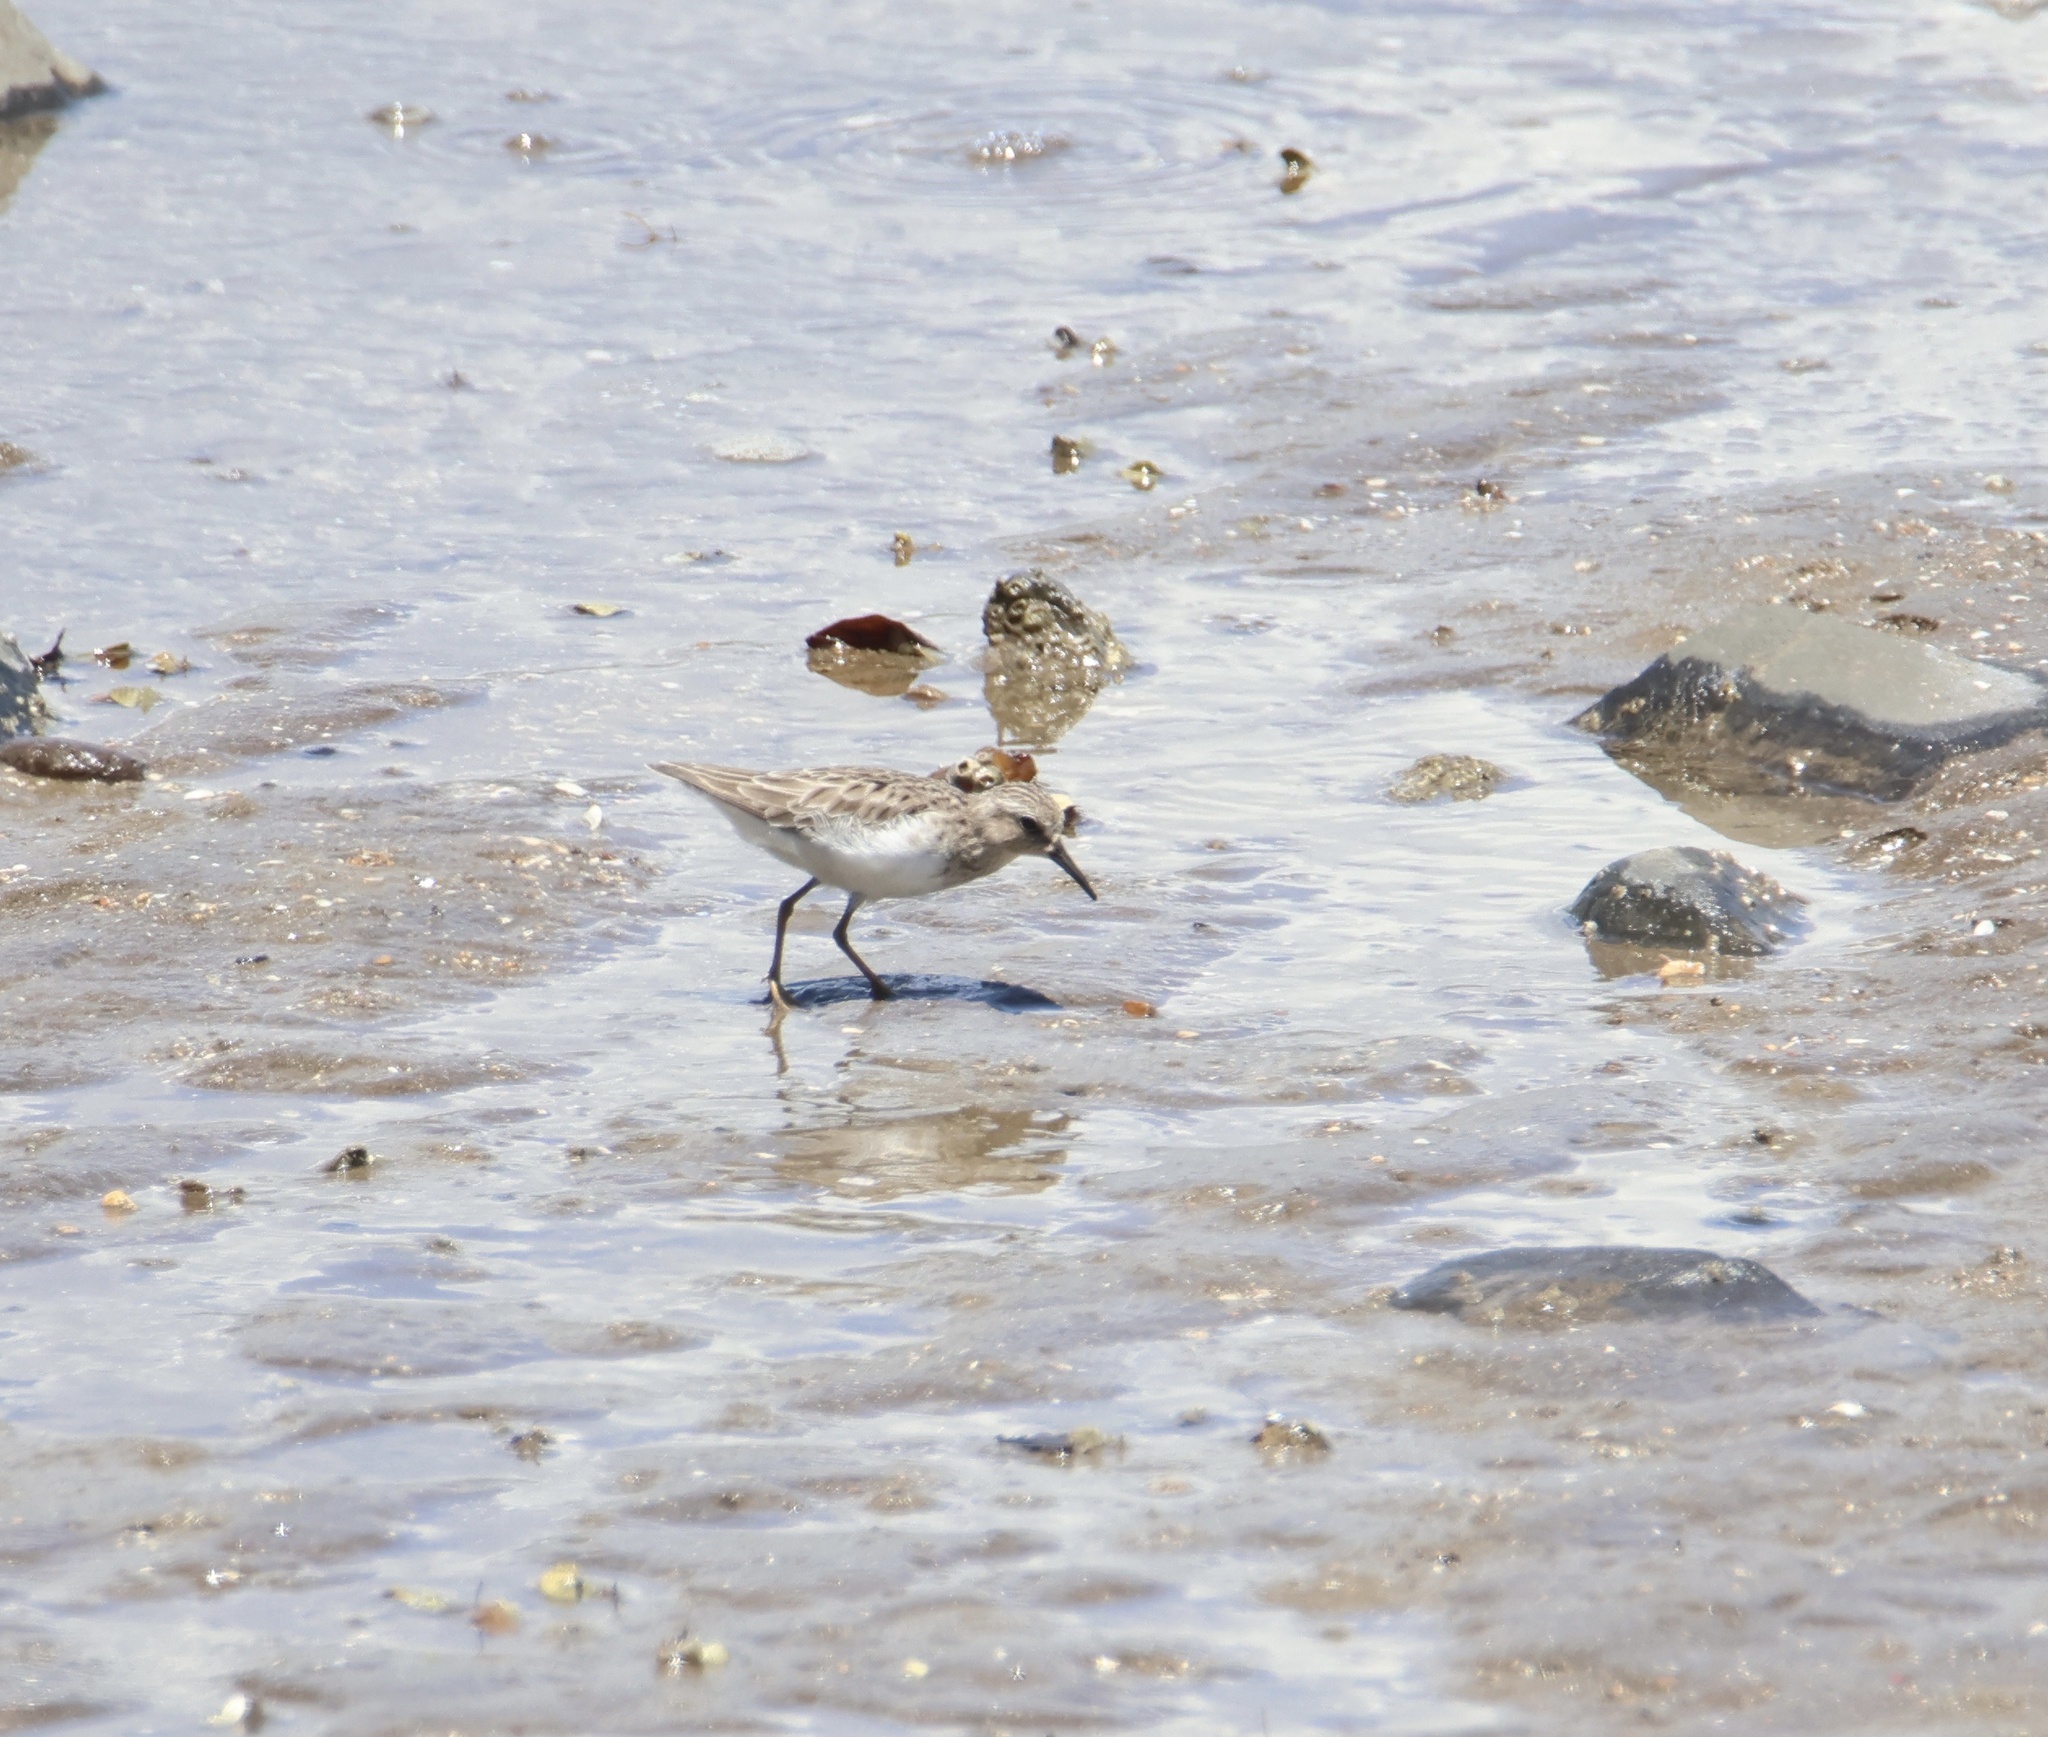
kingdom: Animalia
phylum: Chordata
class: Aves
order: Charadriiformes
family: Scolopacidae
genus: Calidris
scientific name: Calidris minutilla
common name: Least sandpiper
